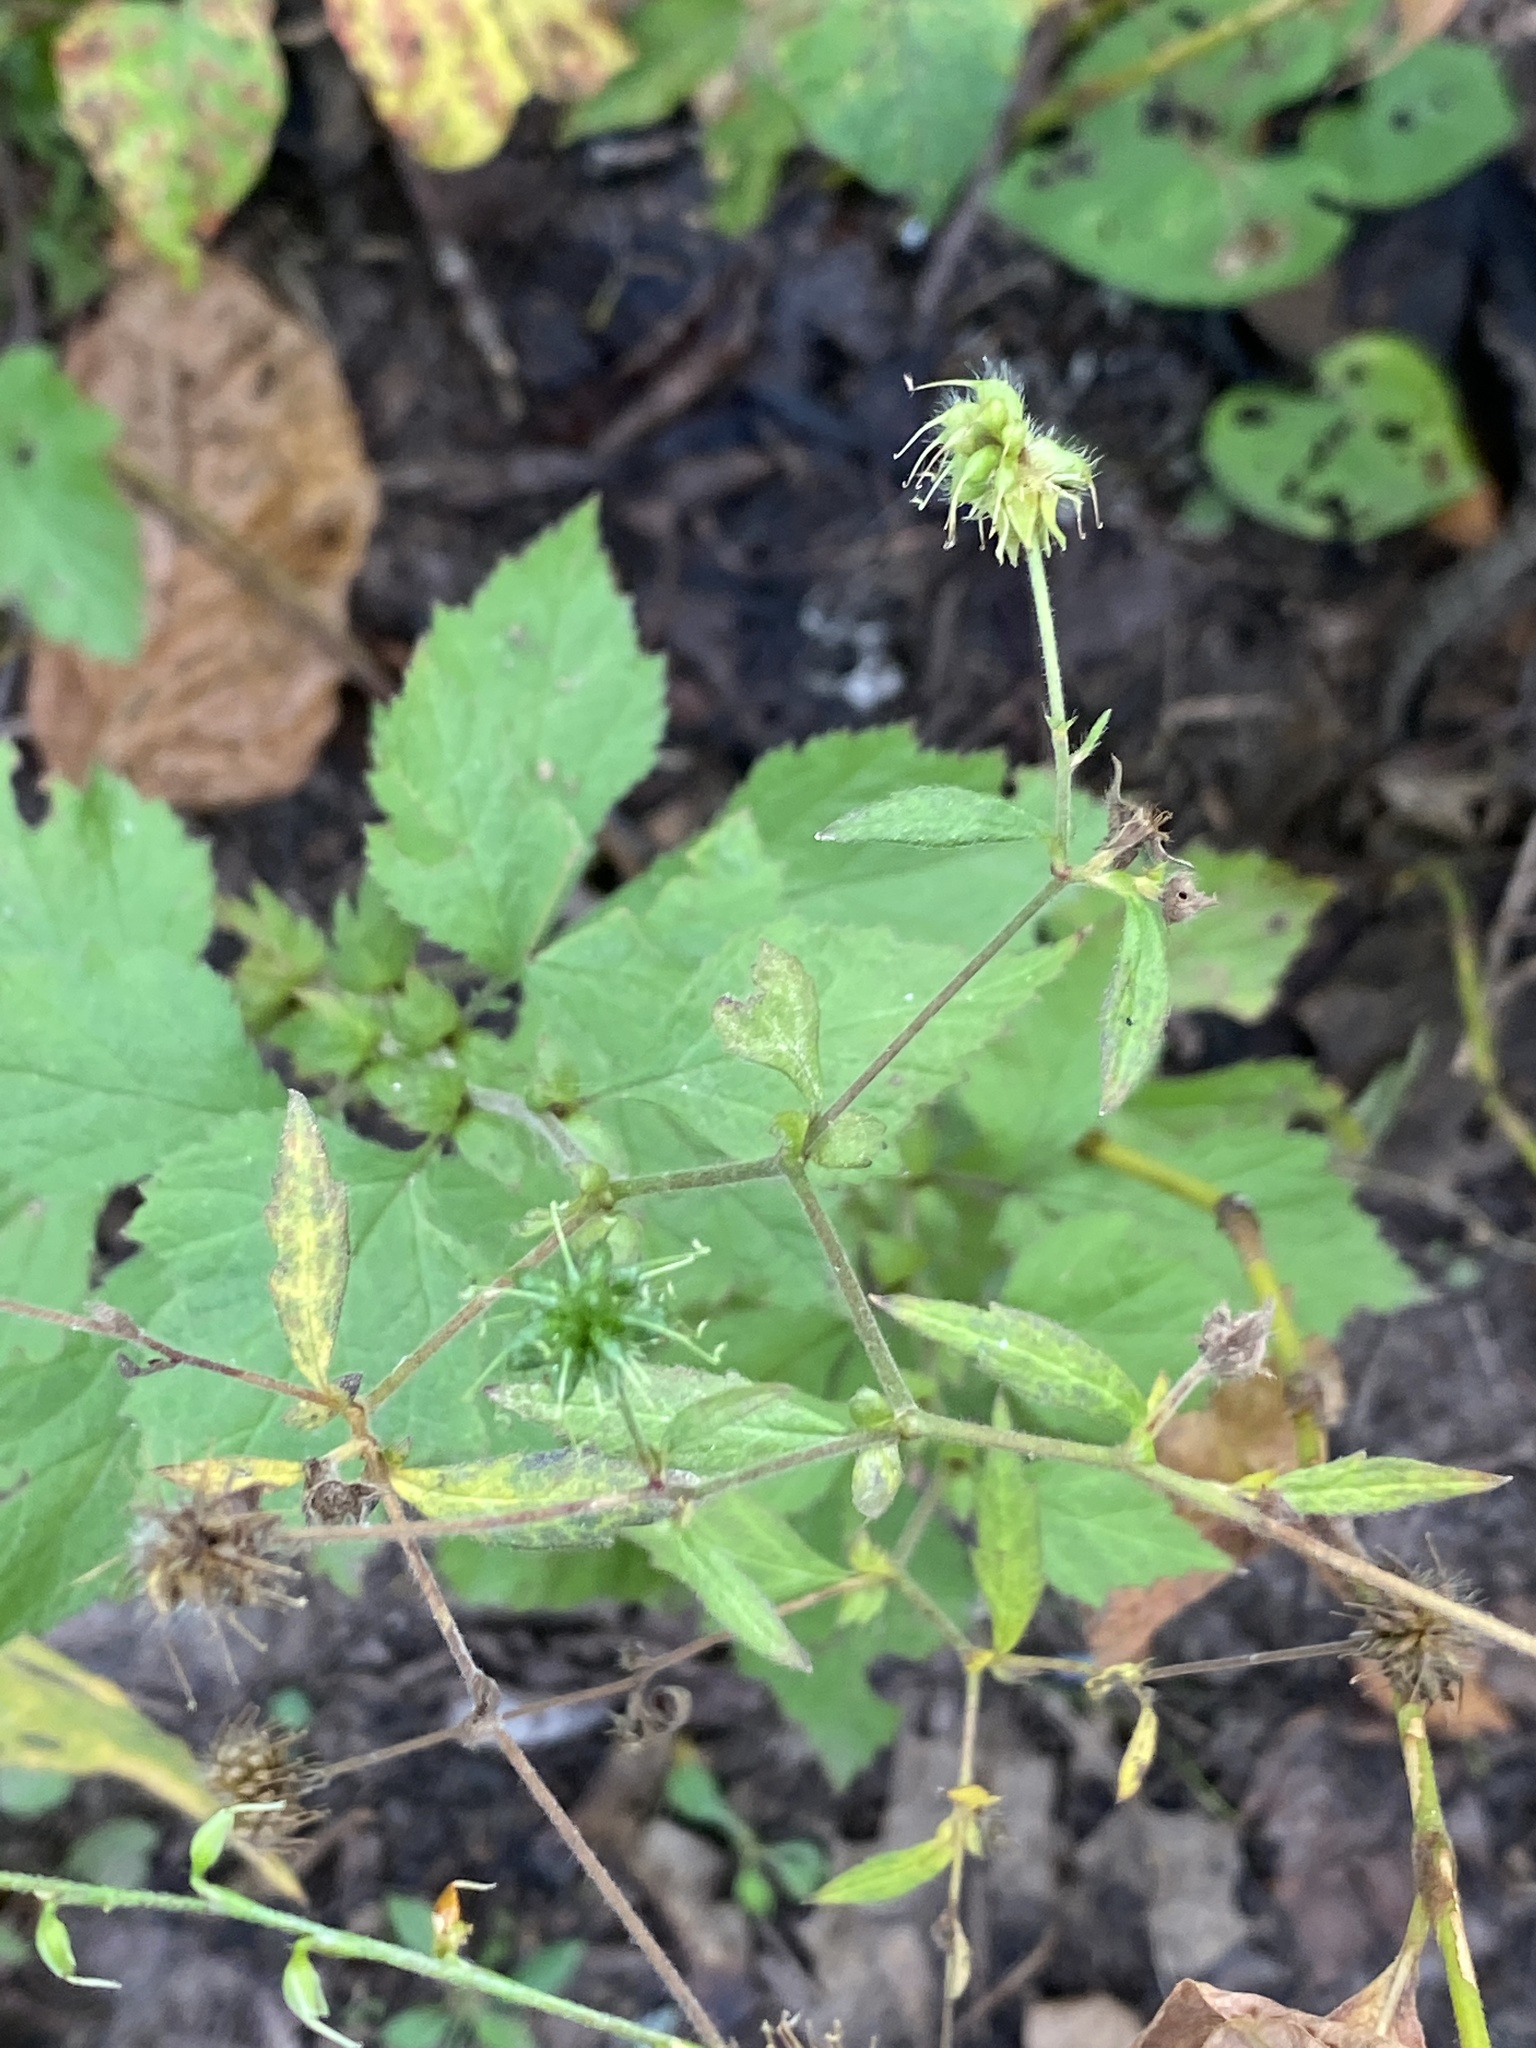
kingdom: Plantae
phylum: Tracheophyta
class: Magnoliopsida
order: Rosales
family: Rosaceae
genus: Geum
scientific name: Geum canadense
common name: White avens
